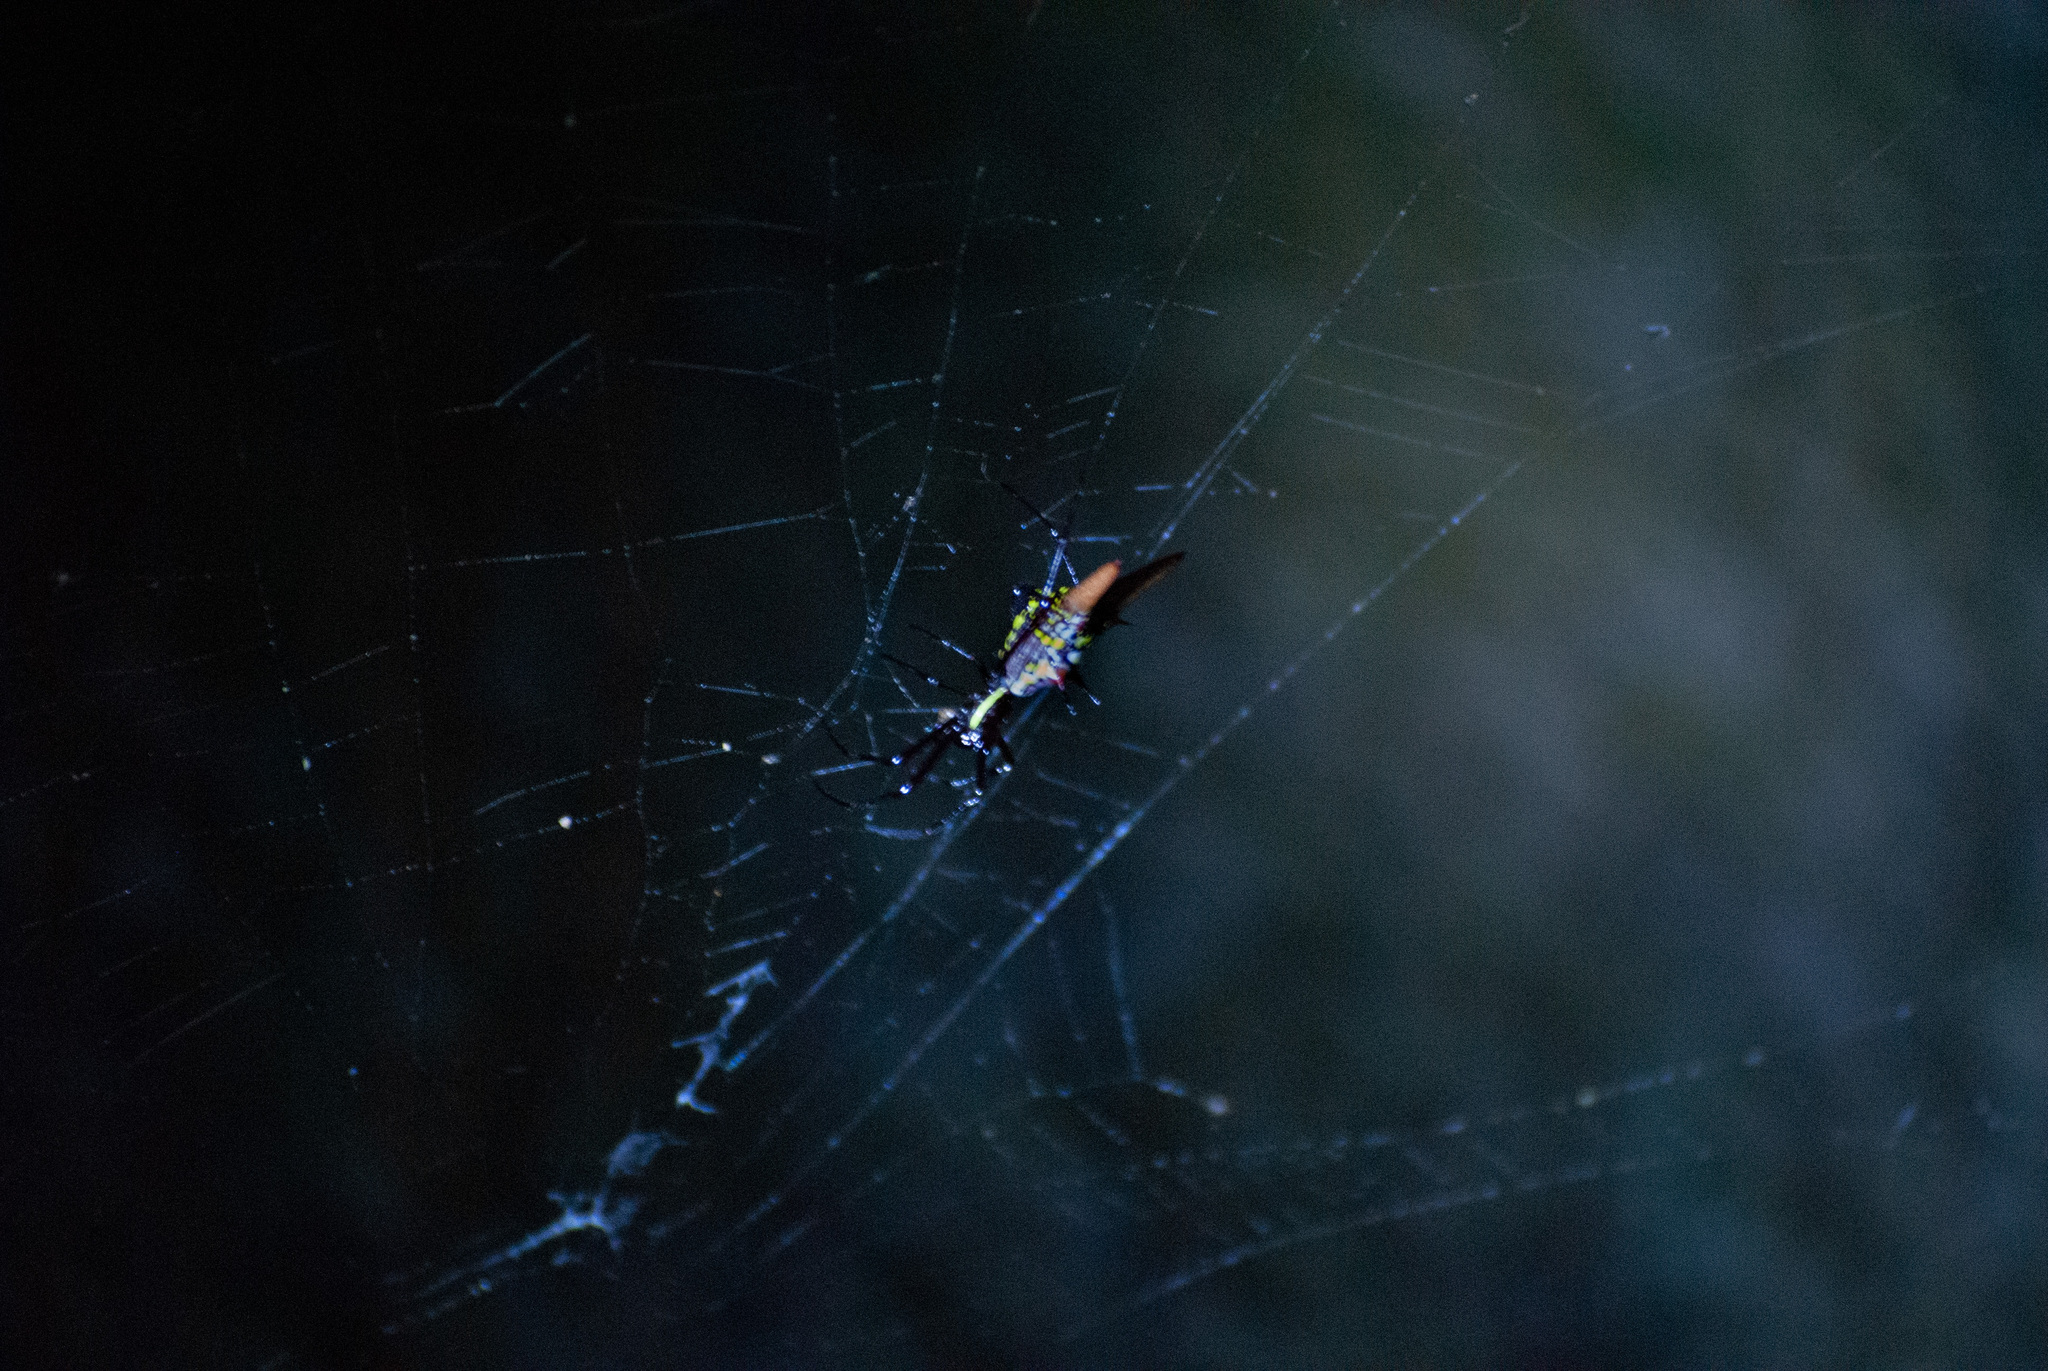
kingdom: Animalia
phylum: Arthropoda
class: Arachnida
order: Araneae
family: Araneidae
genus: Micrathena
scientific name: Micrathena sexspinosa
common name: Orb weavers
